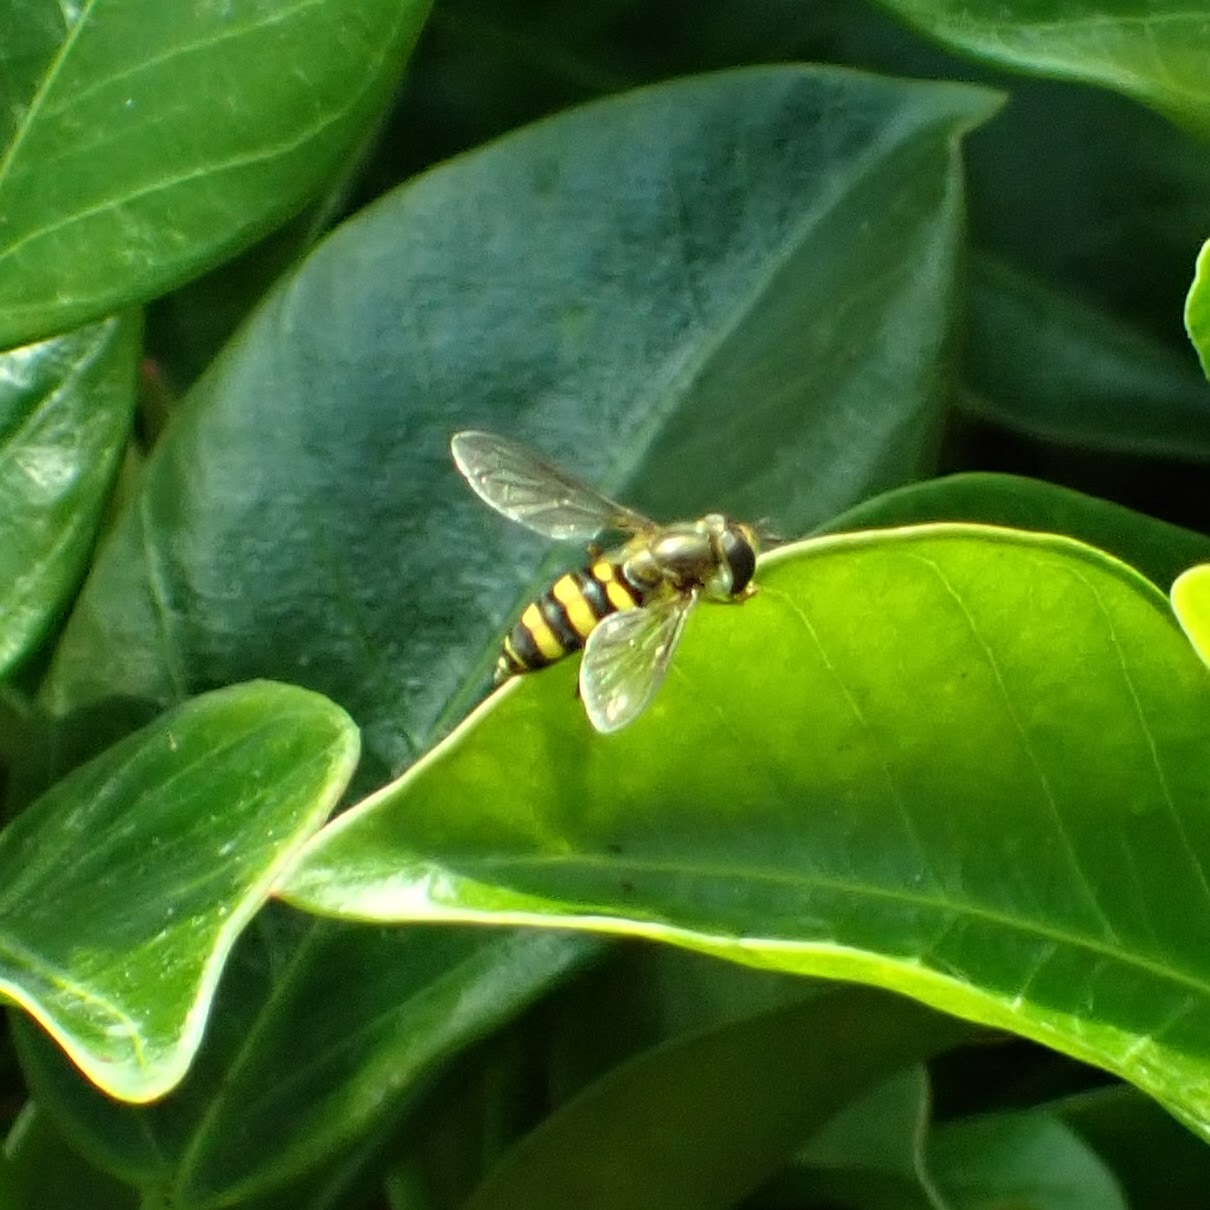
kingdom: Animalia
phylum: Arthropoda
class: Insecta
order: Diptera
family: Syrphidae
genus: Eupeodes
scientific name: Eupeodes
